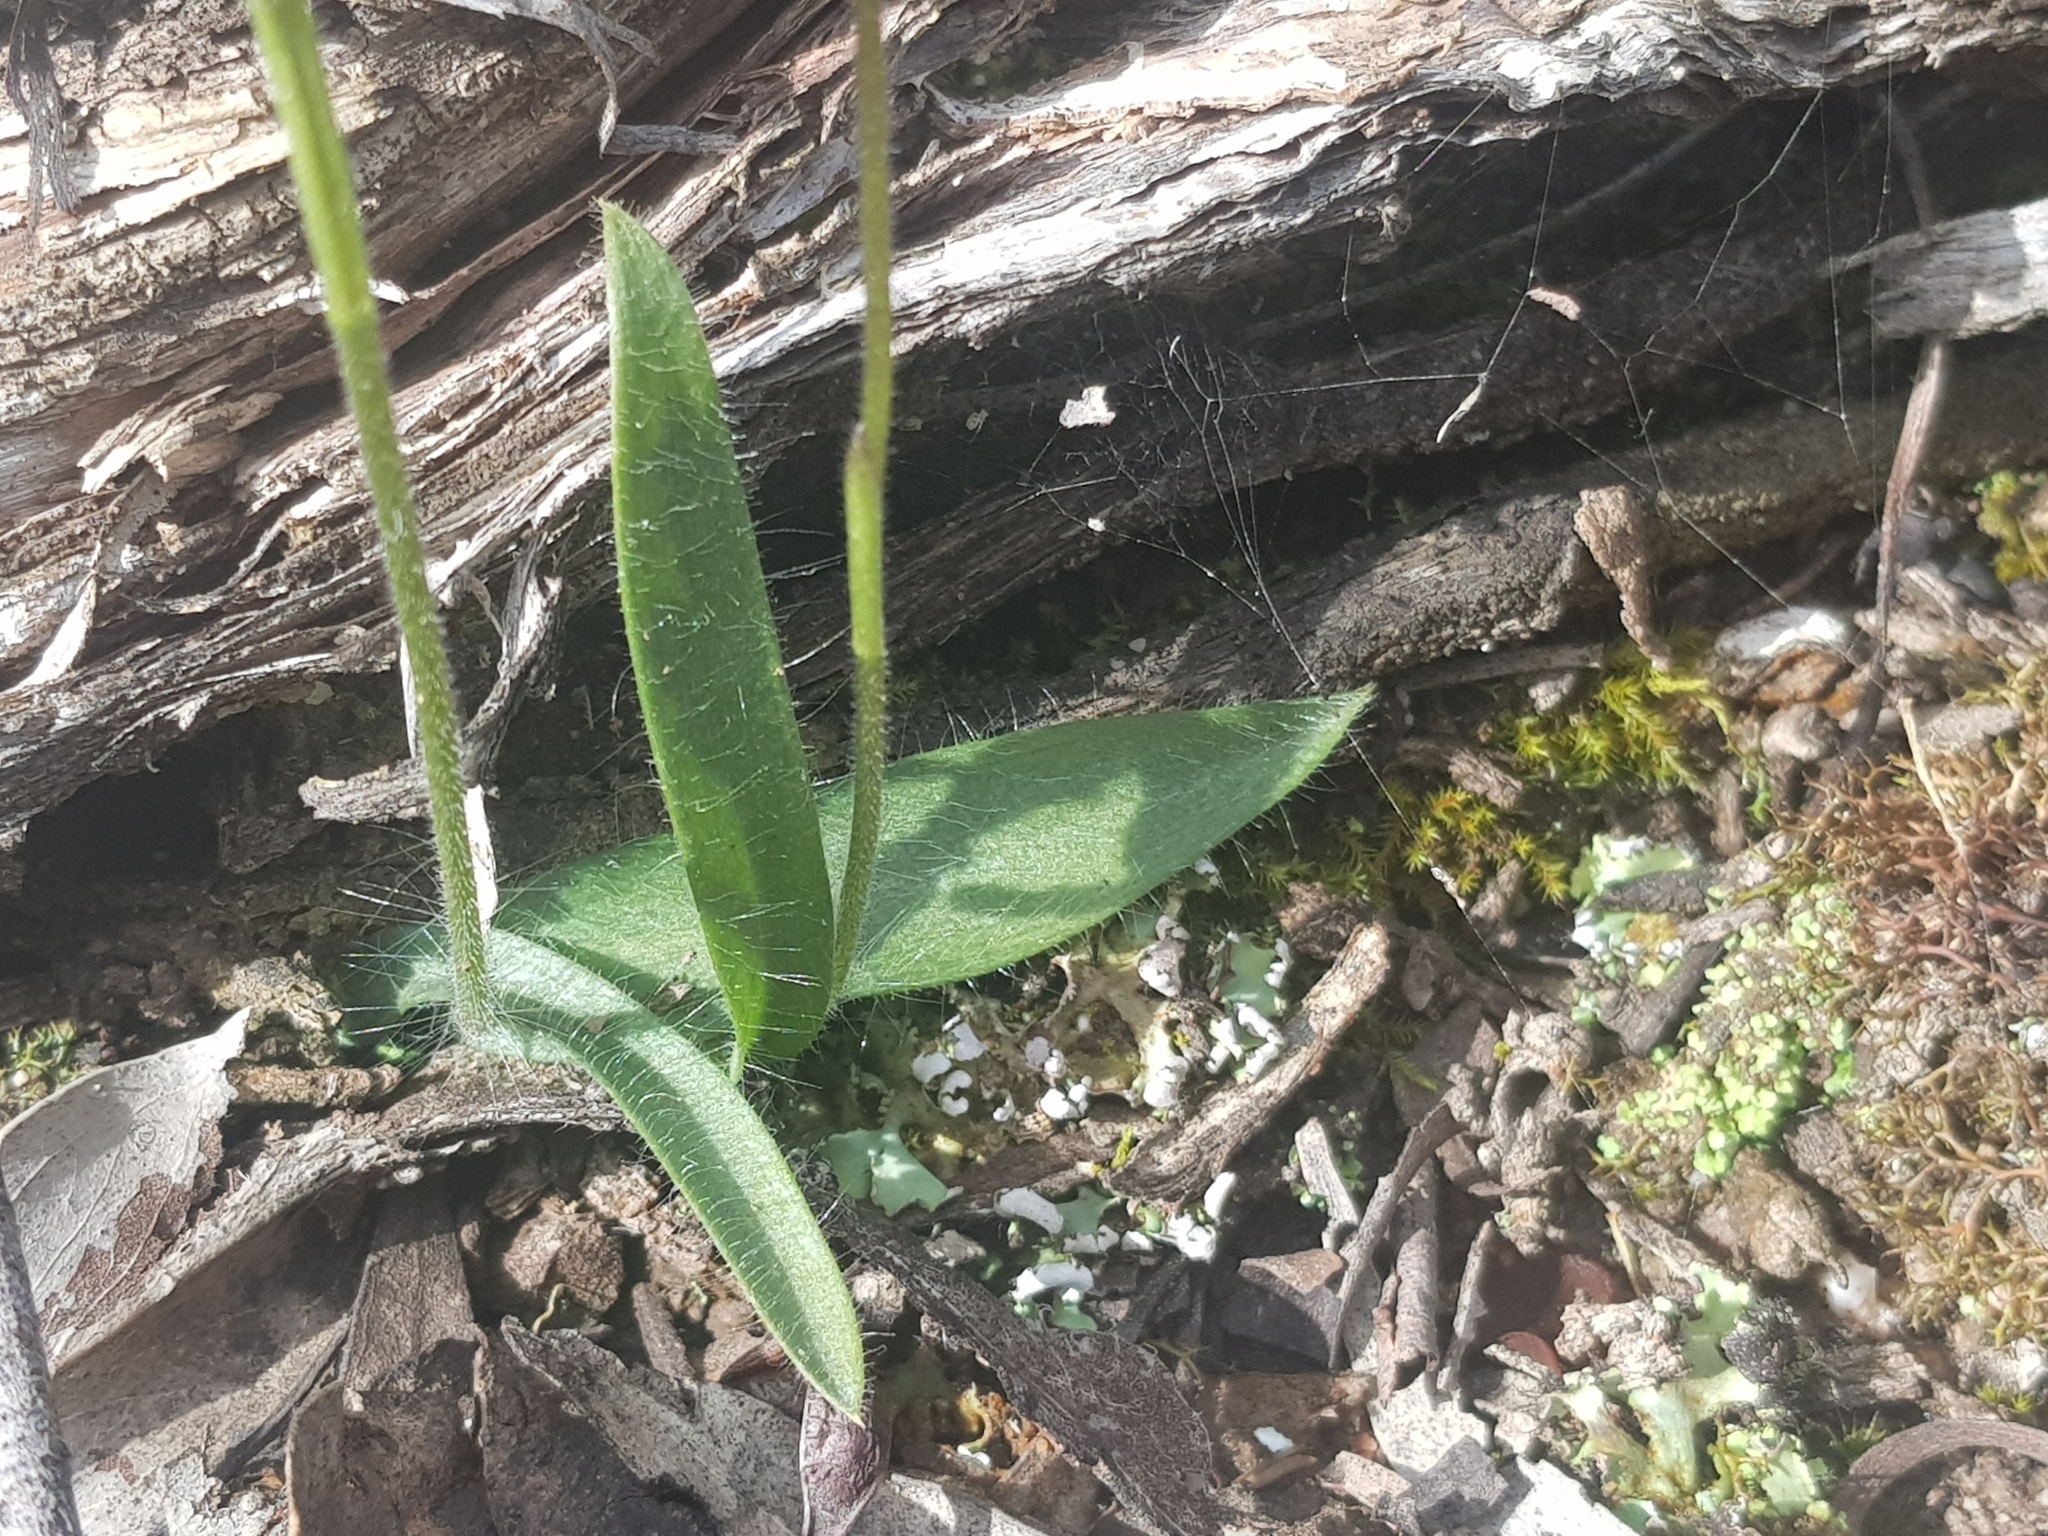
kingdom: Plantae
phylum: Tracheophyta
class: Liliopsida
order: Asparagales
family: Orchidaceae
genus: Caladenia
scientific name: Caladenia major
